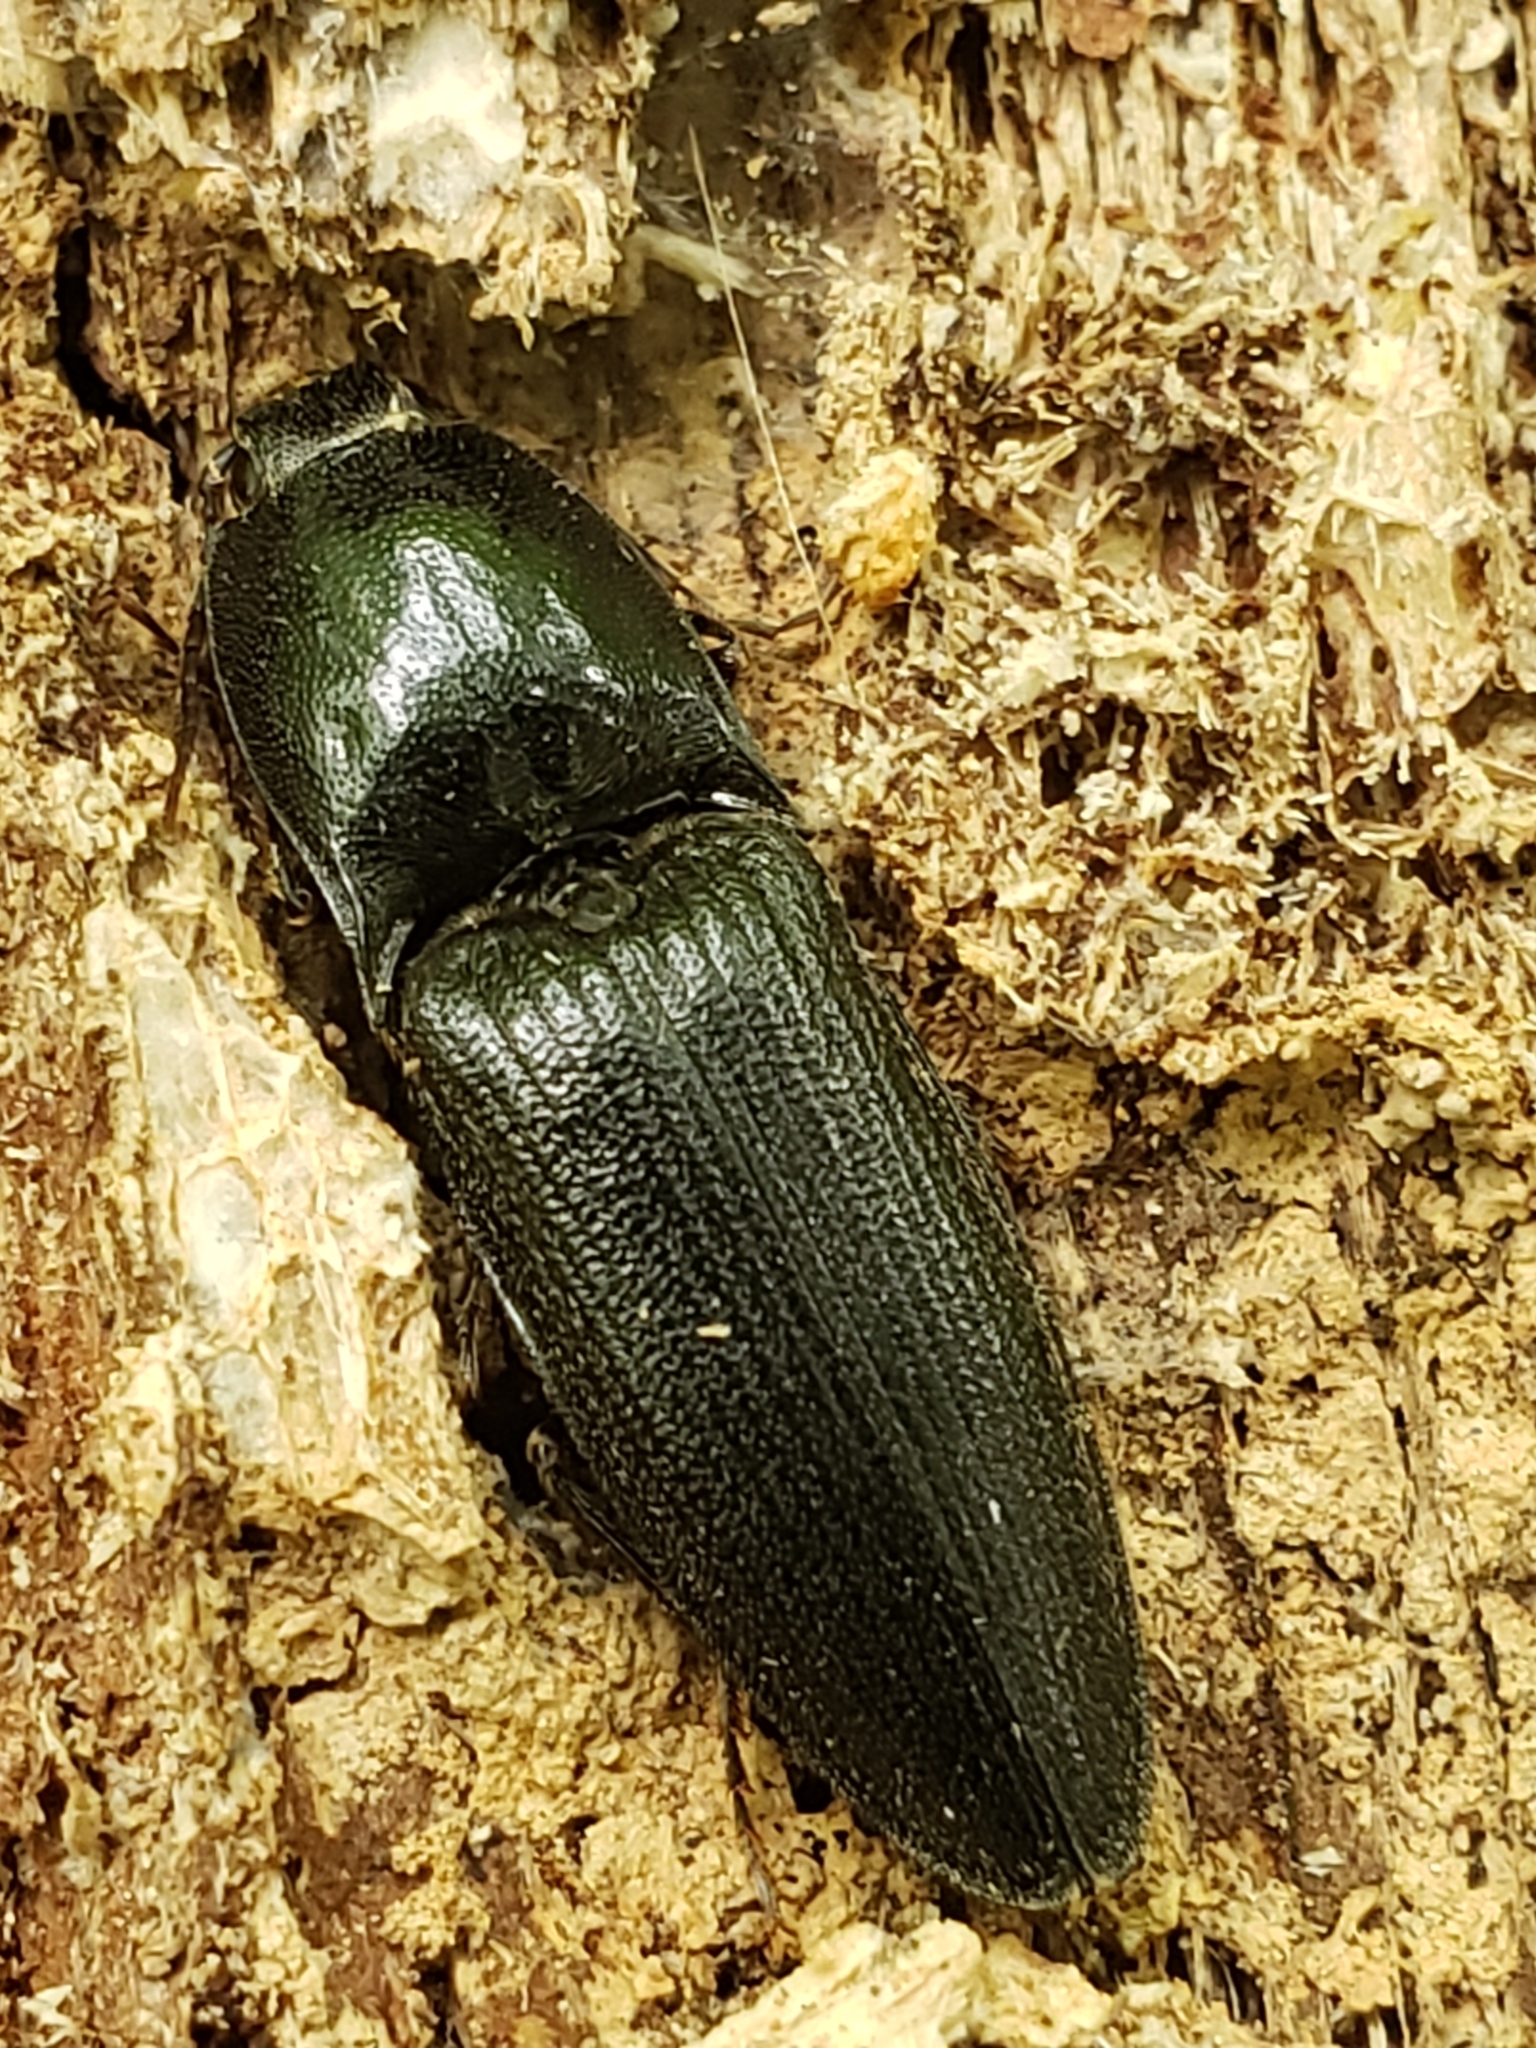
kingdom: Animalia
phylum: Arthropoda
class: Insecta
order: Coleoptera
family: Elateridae
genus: Neopristilophus
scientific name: Neopristilophus
